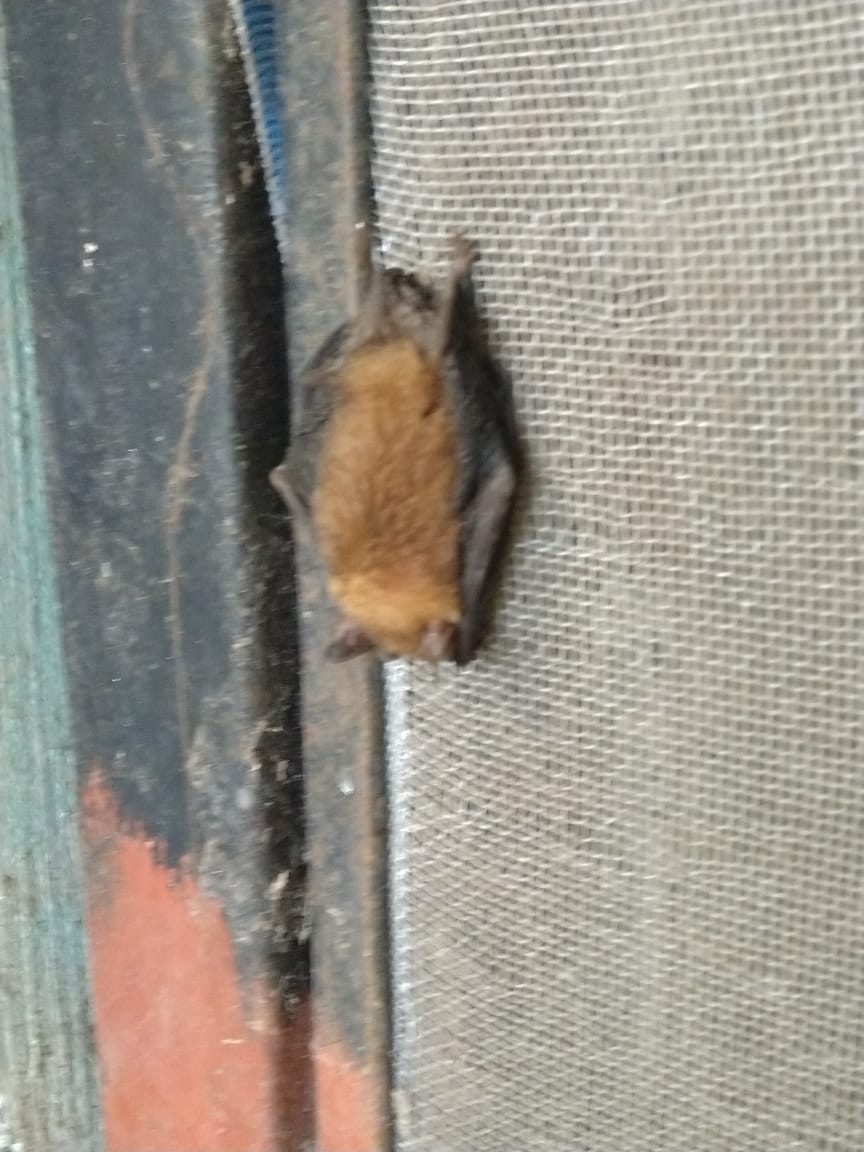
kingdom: Animalia
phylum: Chordata
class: Mammalia
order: Chiroptera
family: Vespertilionidae
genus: Rhogeessa
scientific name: Rhogeessa aenea
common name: Yucatan yellow bat
